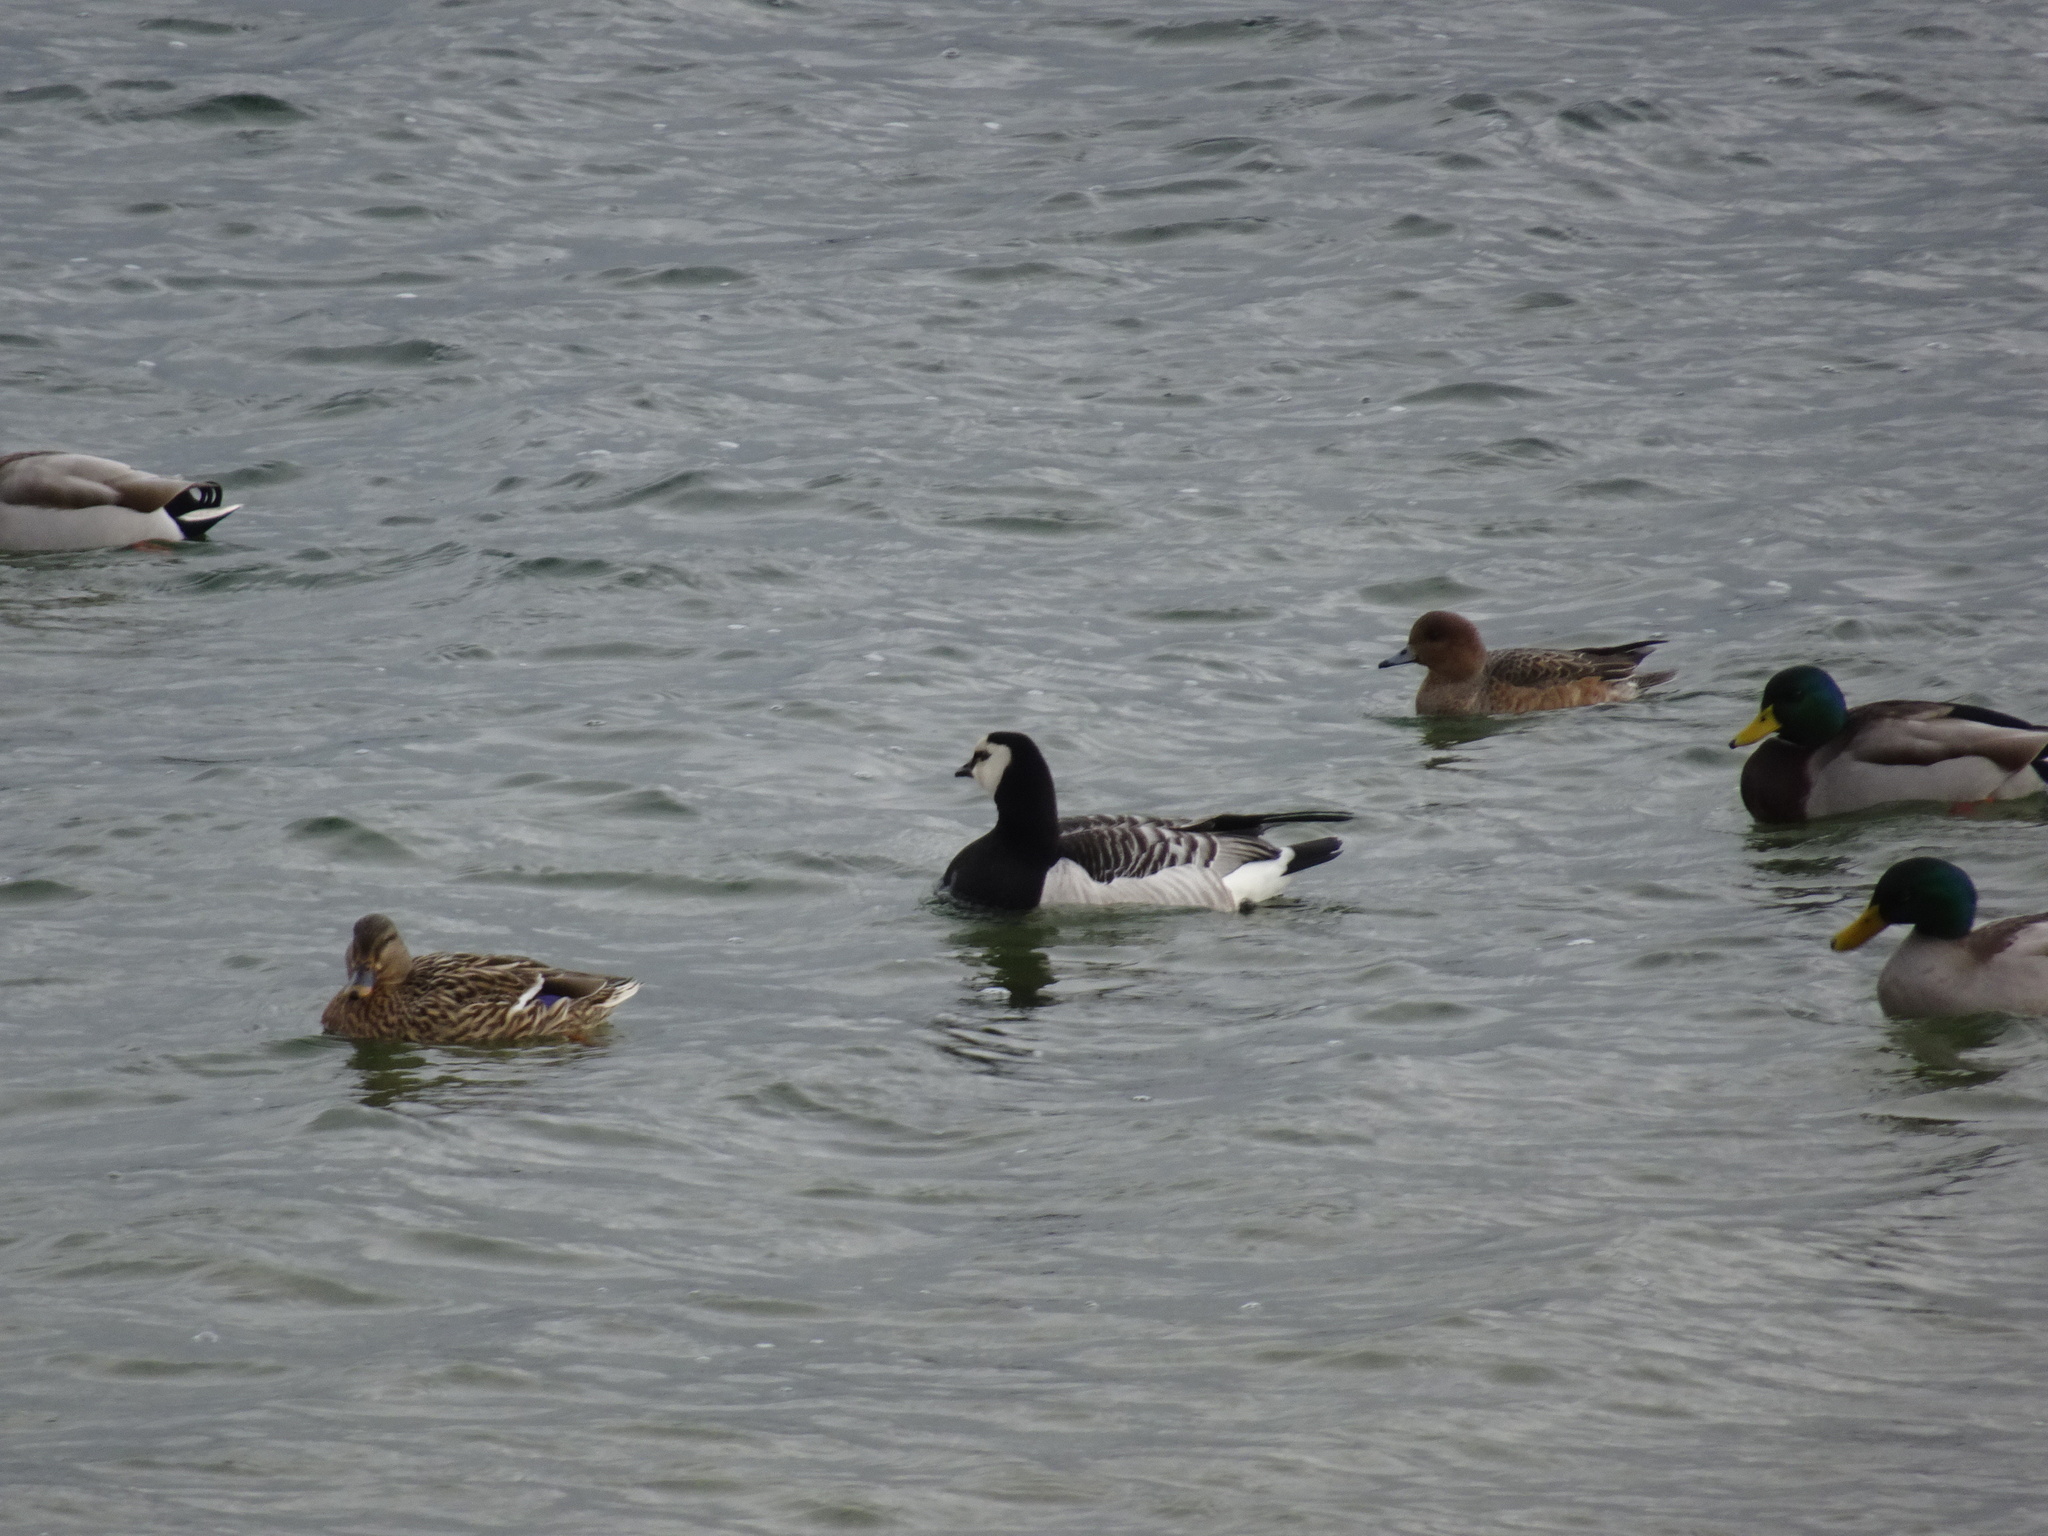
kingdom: Animalia
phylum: Chordata
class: Aves
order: Anseriformes
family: Anatidae
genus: Branta
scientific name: Branta leucopsis
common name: Barnacle goose
